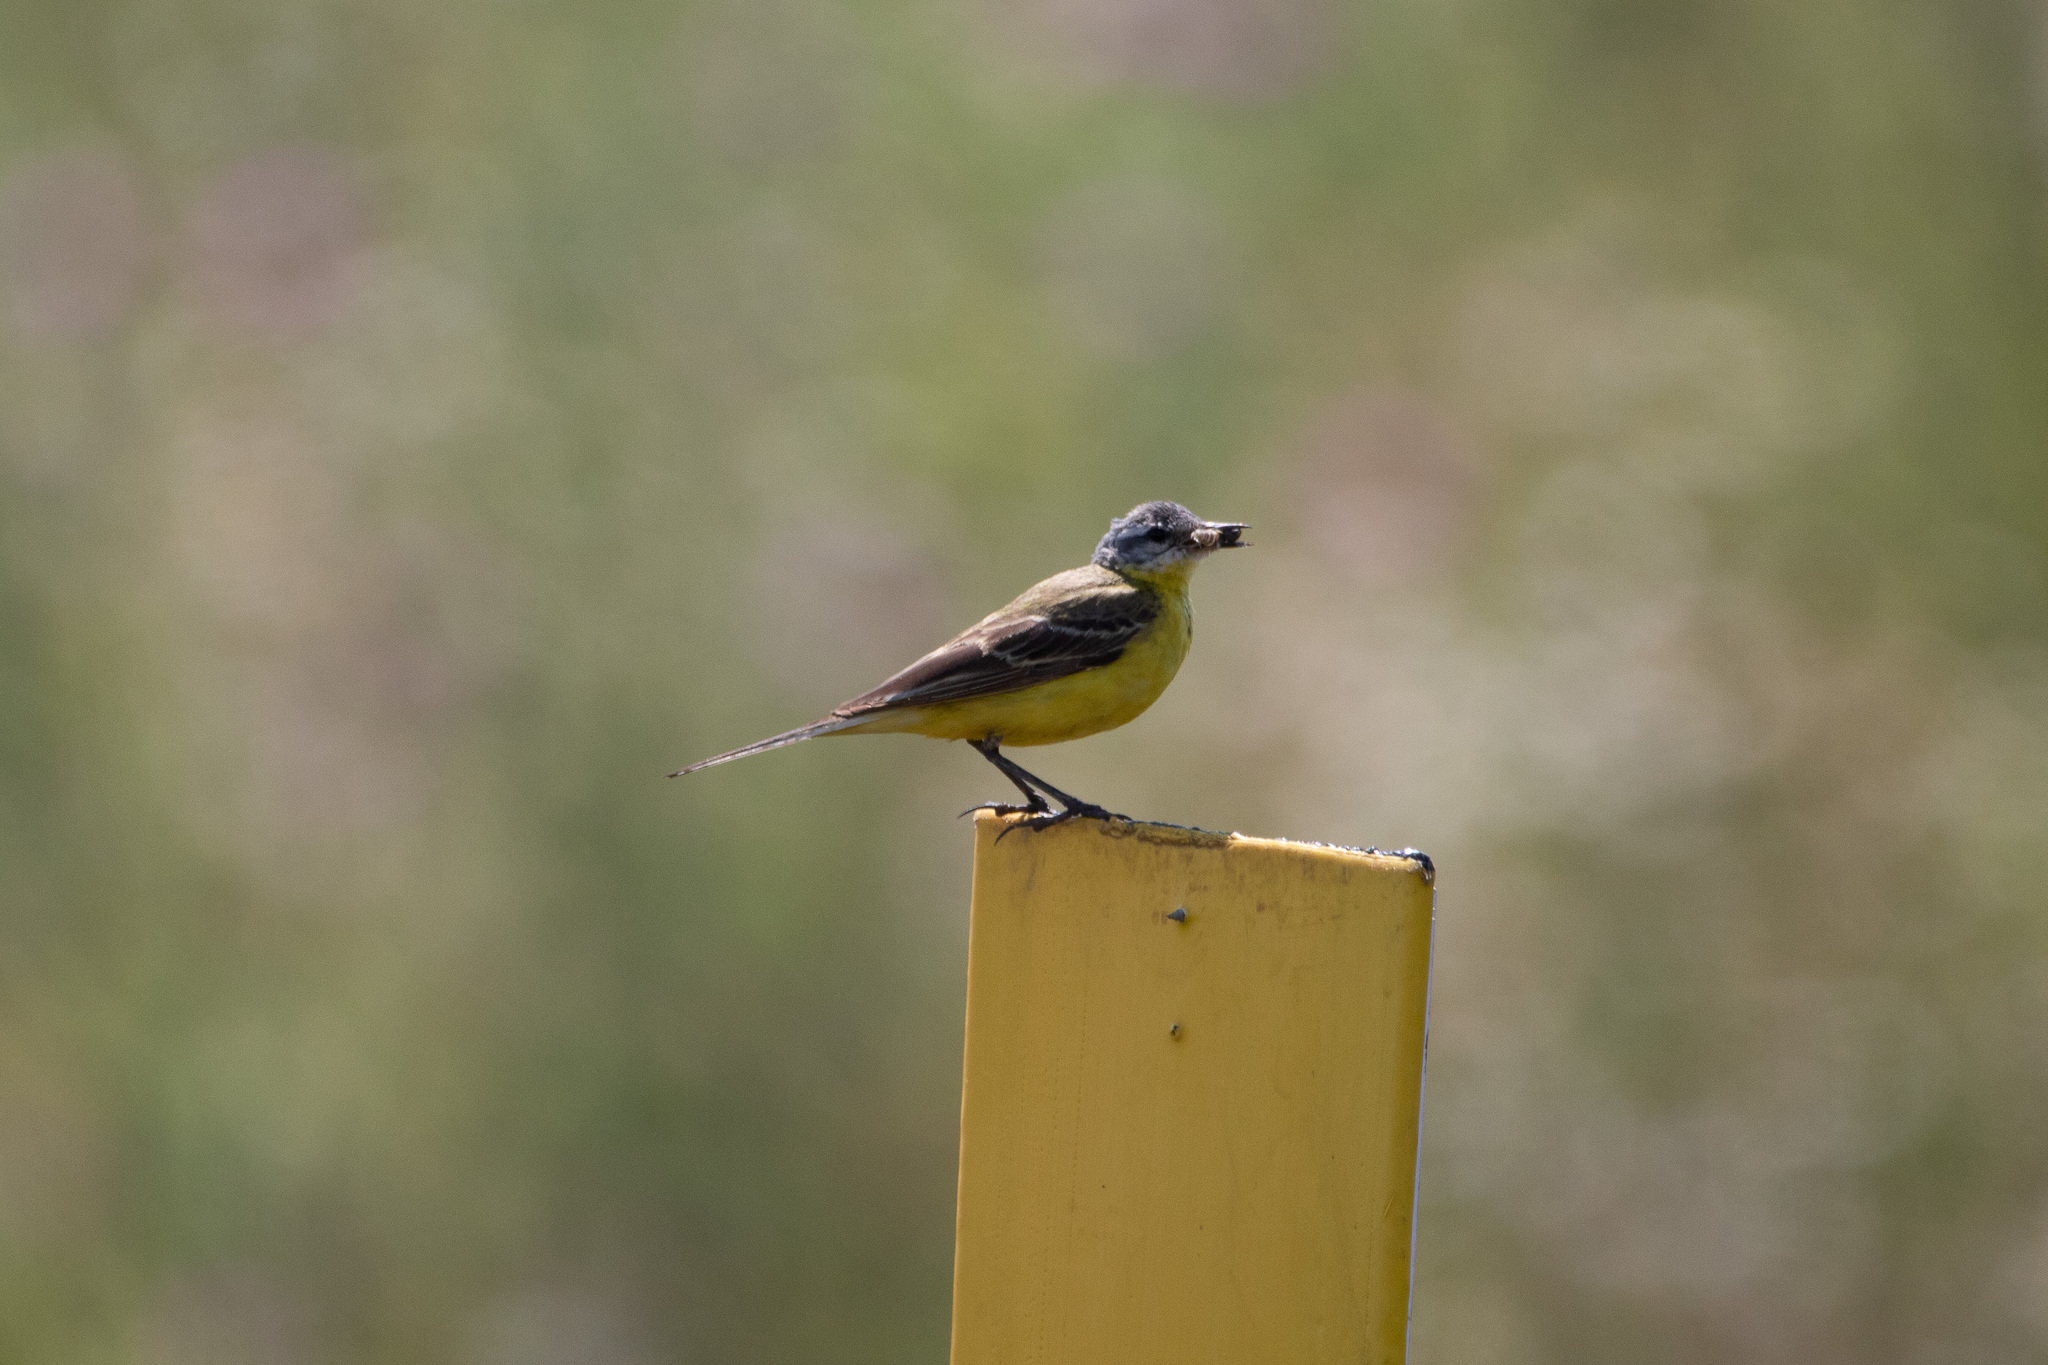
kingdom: Animalia
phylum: Chordata
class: Aves
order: Passeriformes
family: Motacillidae
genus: Motacilla
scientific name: Motacilla flava
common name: Western yellow wagtail
